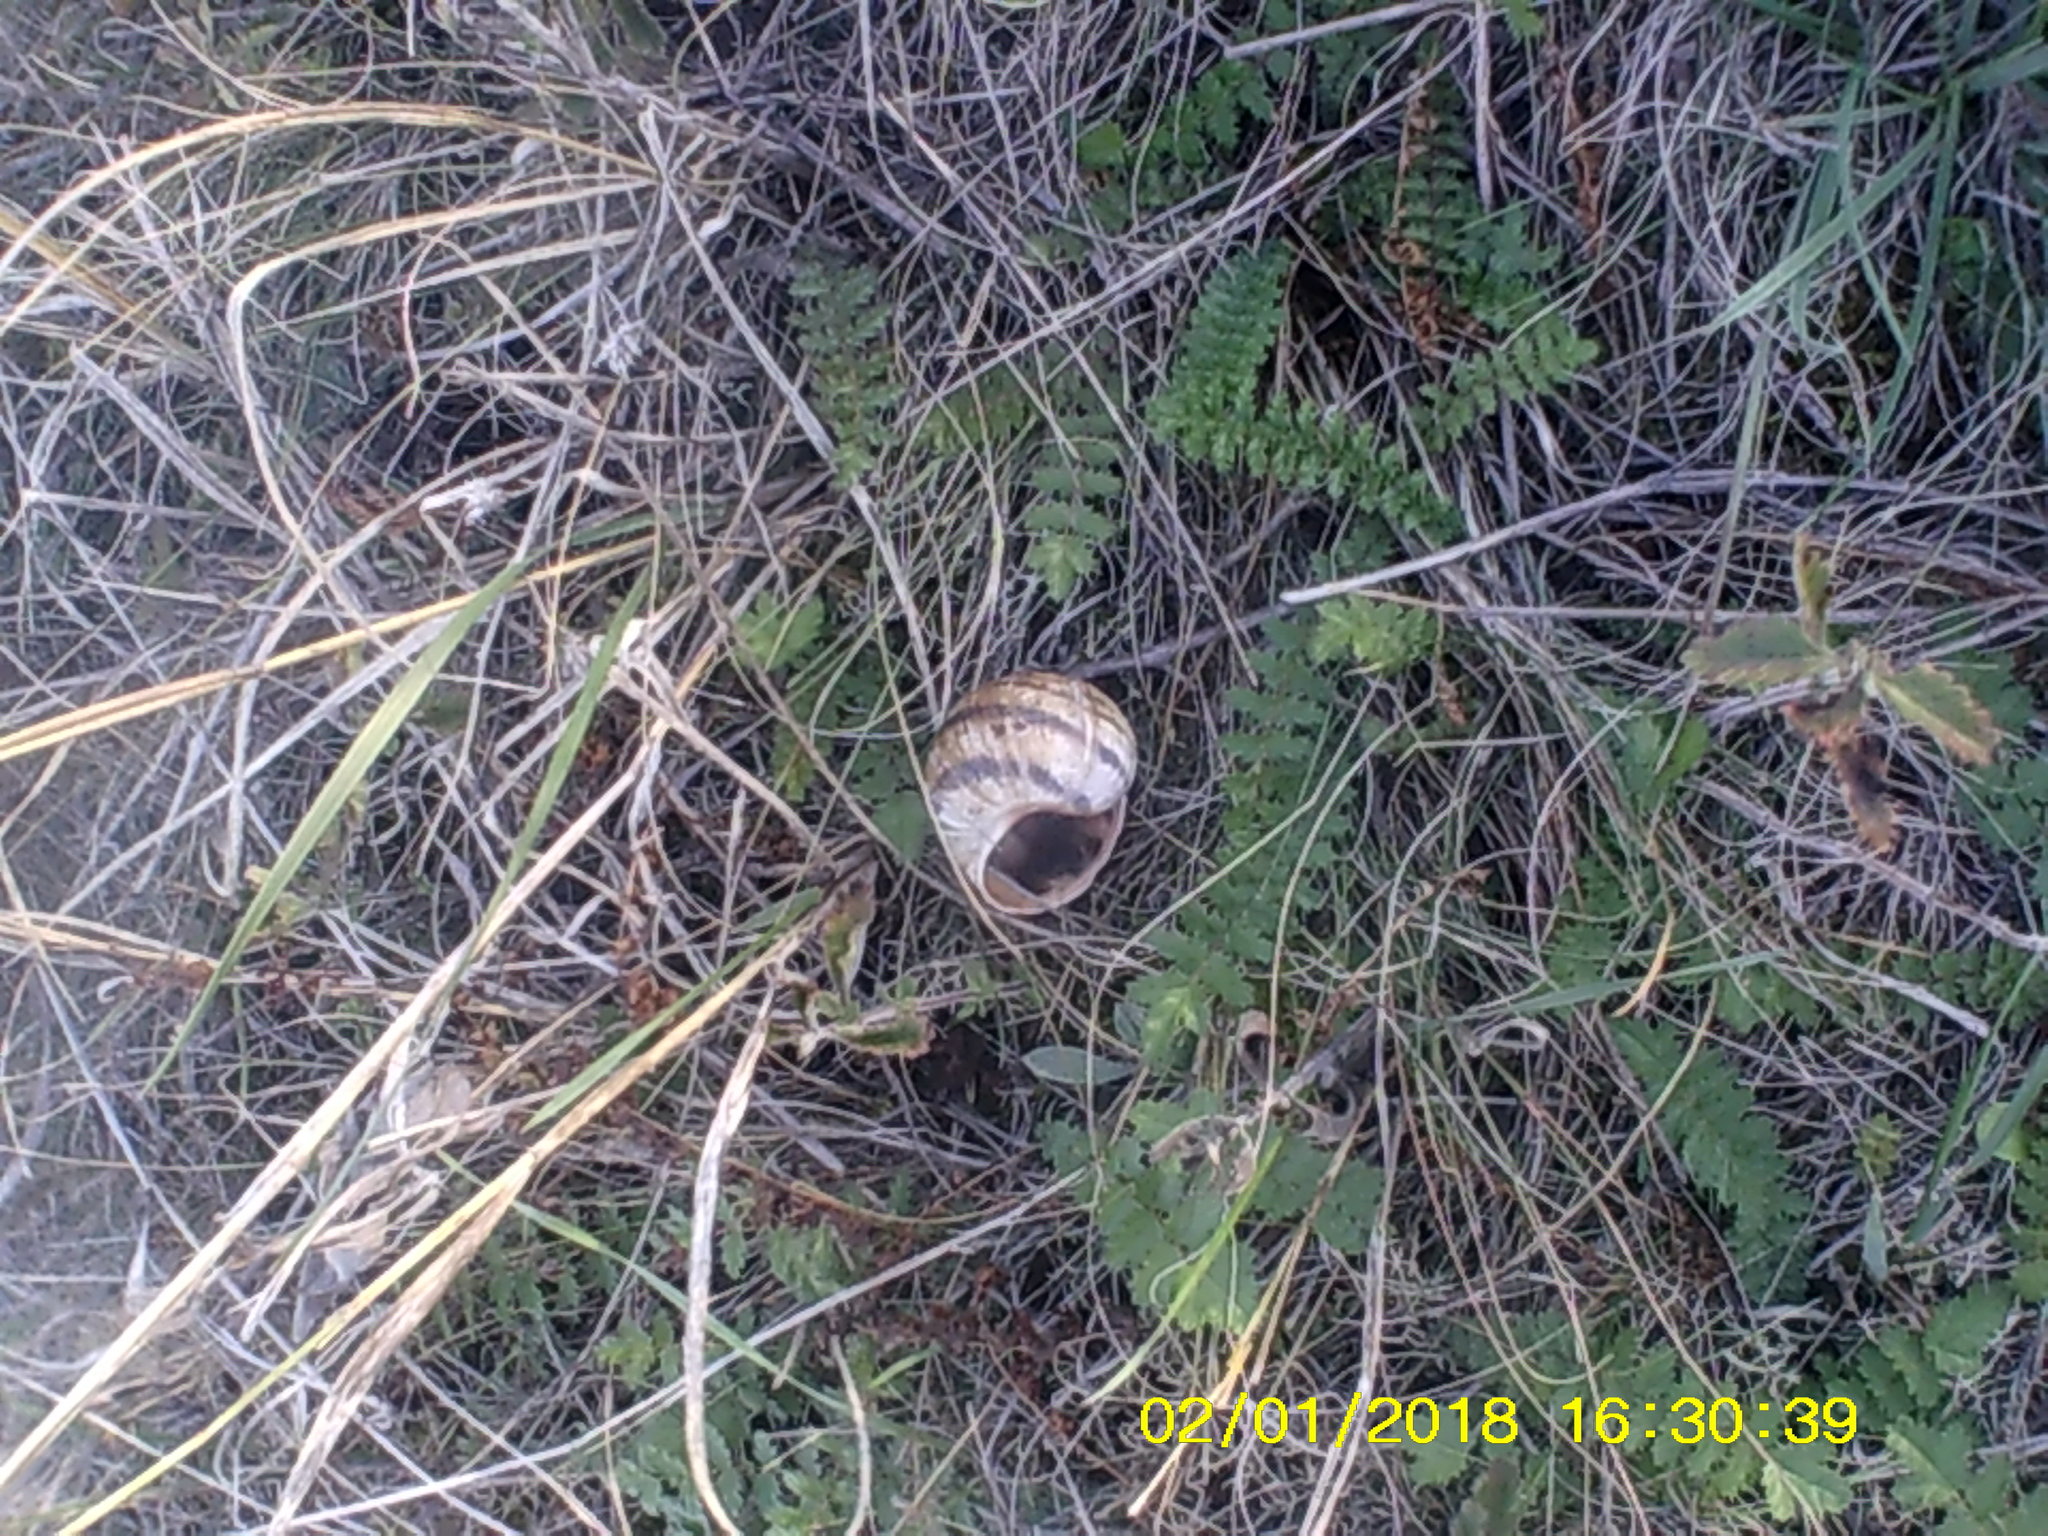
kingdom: Animalia
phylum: Mollusca
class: Gastropoda
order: Stylommatophora
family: Helicidae
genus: Helix
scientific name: Helix albescens
